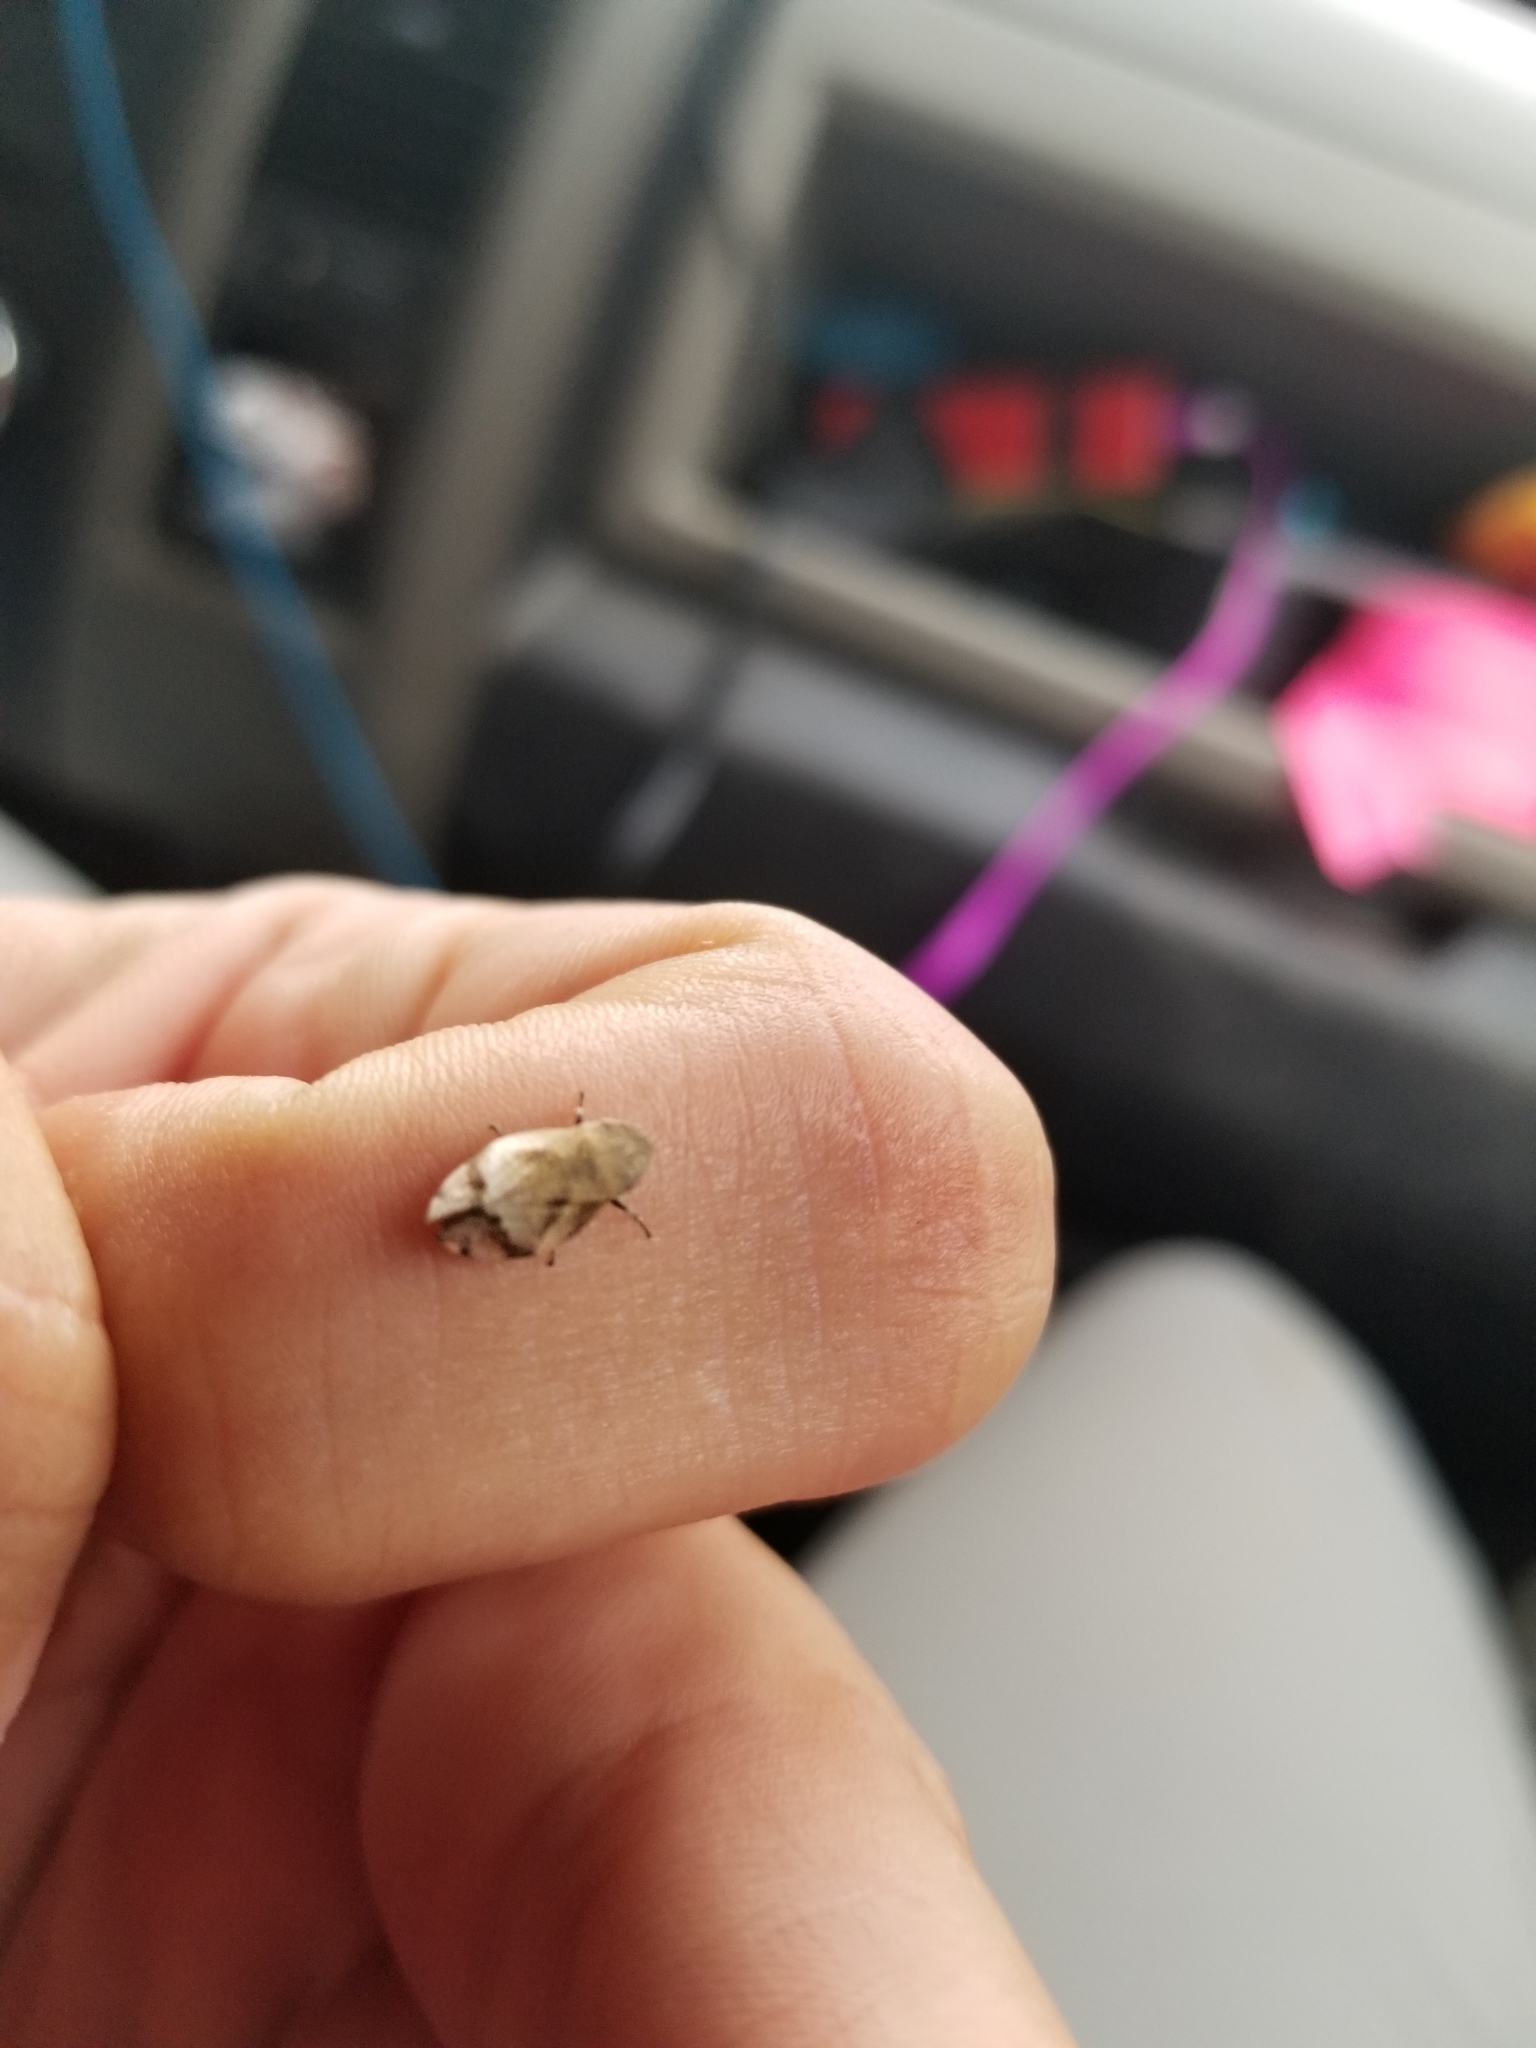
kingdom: Animalia
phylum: Arthropoda
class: Insecta
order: Hemiptera
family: Aphrophoridae
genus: Lepyronia
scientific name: Lepyronia quadrangularis
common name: Diamond-backed spittlebug
